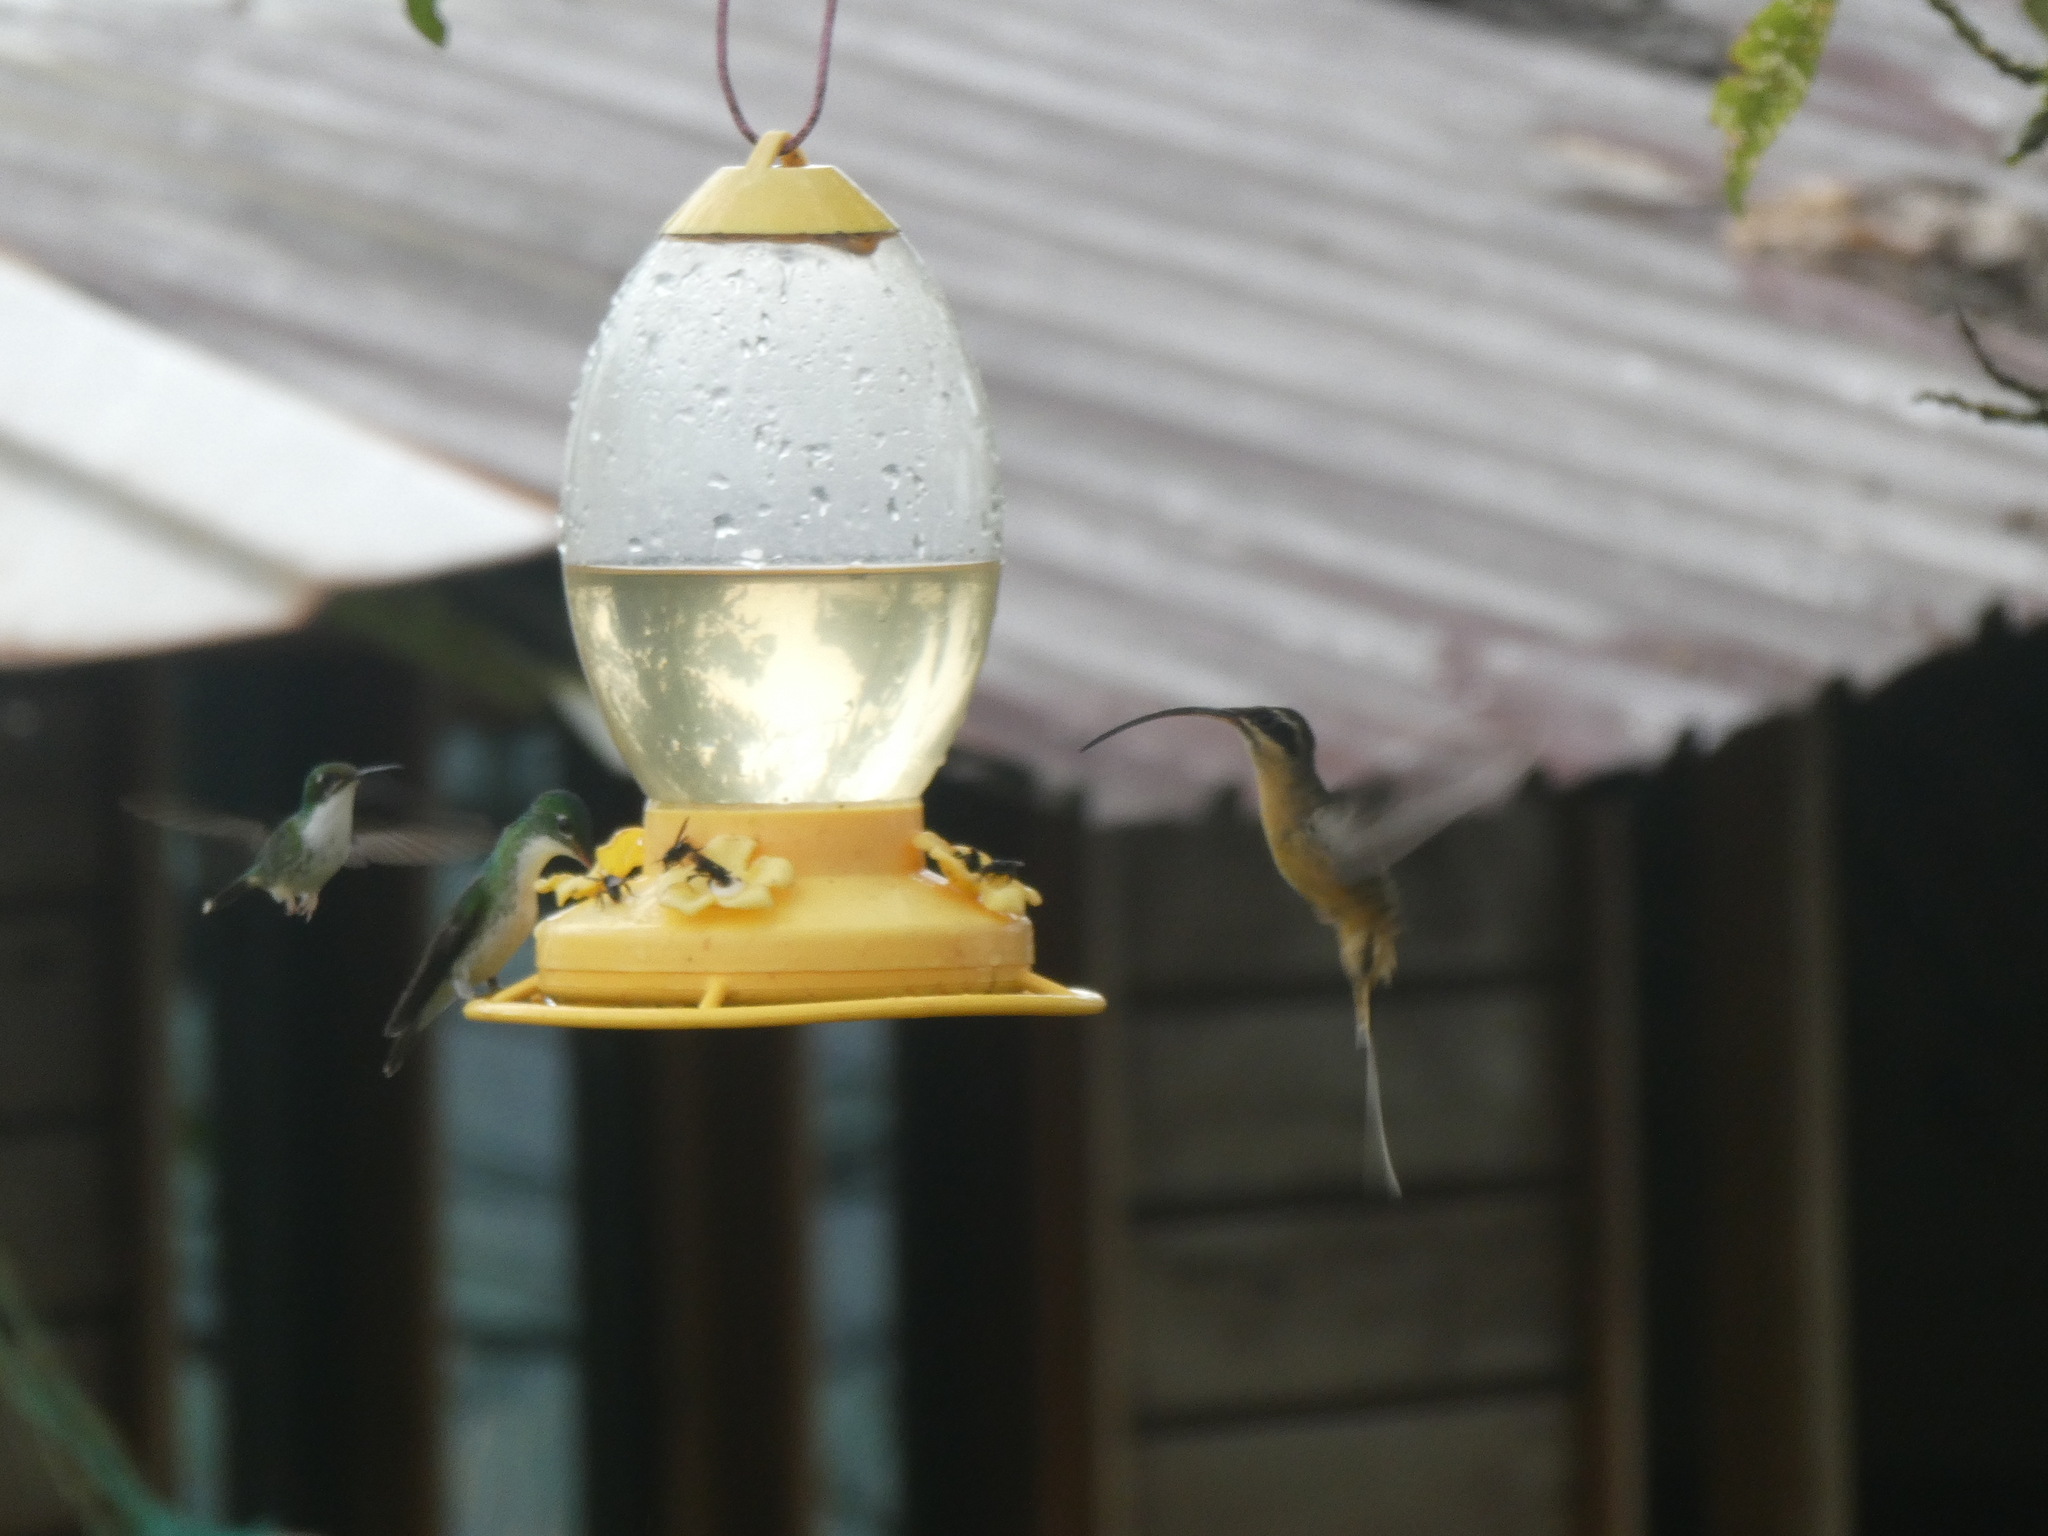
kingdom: Animalia
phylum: Chordata
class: Aves
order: Apodiformes
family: Trochilidae
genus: Phaethornis
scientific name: Phaethornis syrmatophorus
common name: Tawny-bellied hermit
